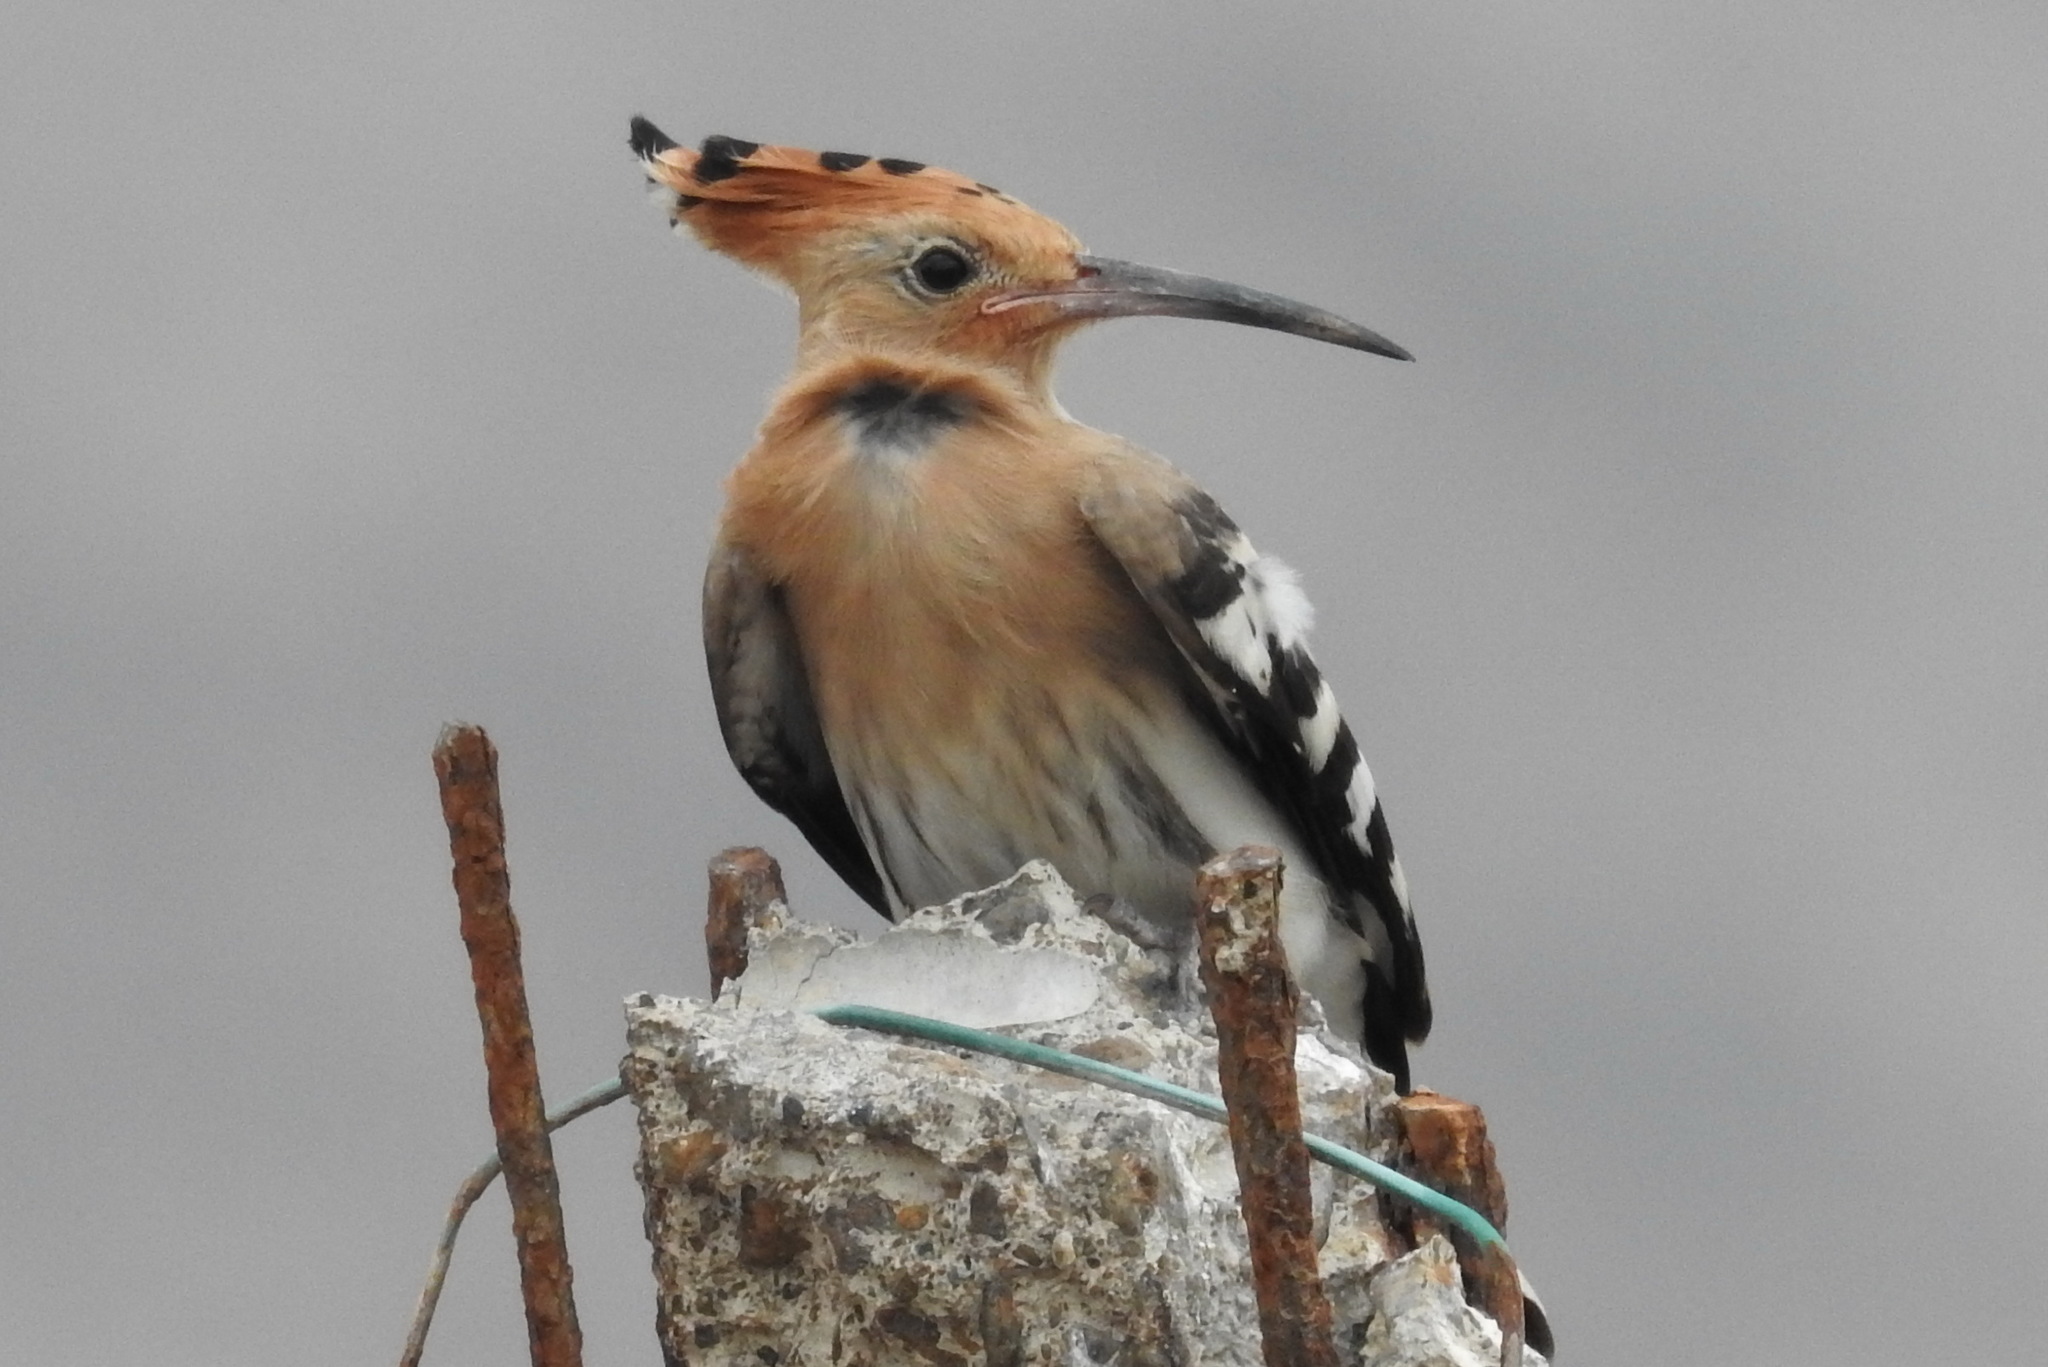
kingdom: Animalia
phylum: Chordata
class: Aves
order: Bucerotiformes
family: Upupidae
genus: Upupa
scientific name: Upupa epops
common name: Eurasian hoopoe
